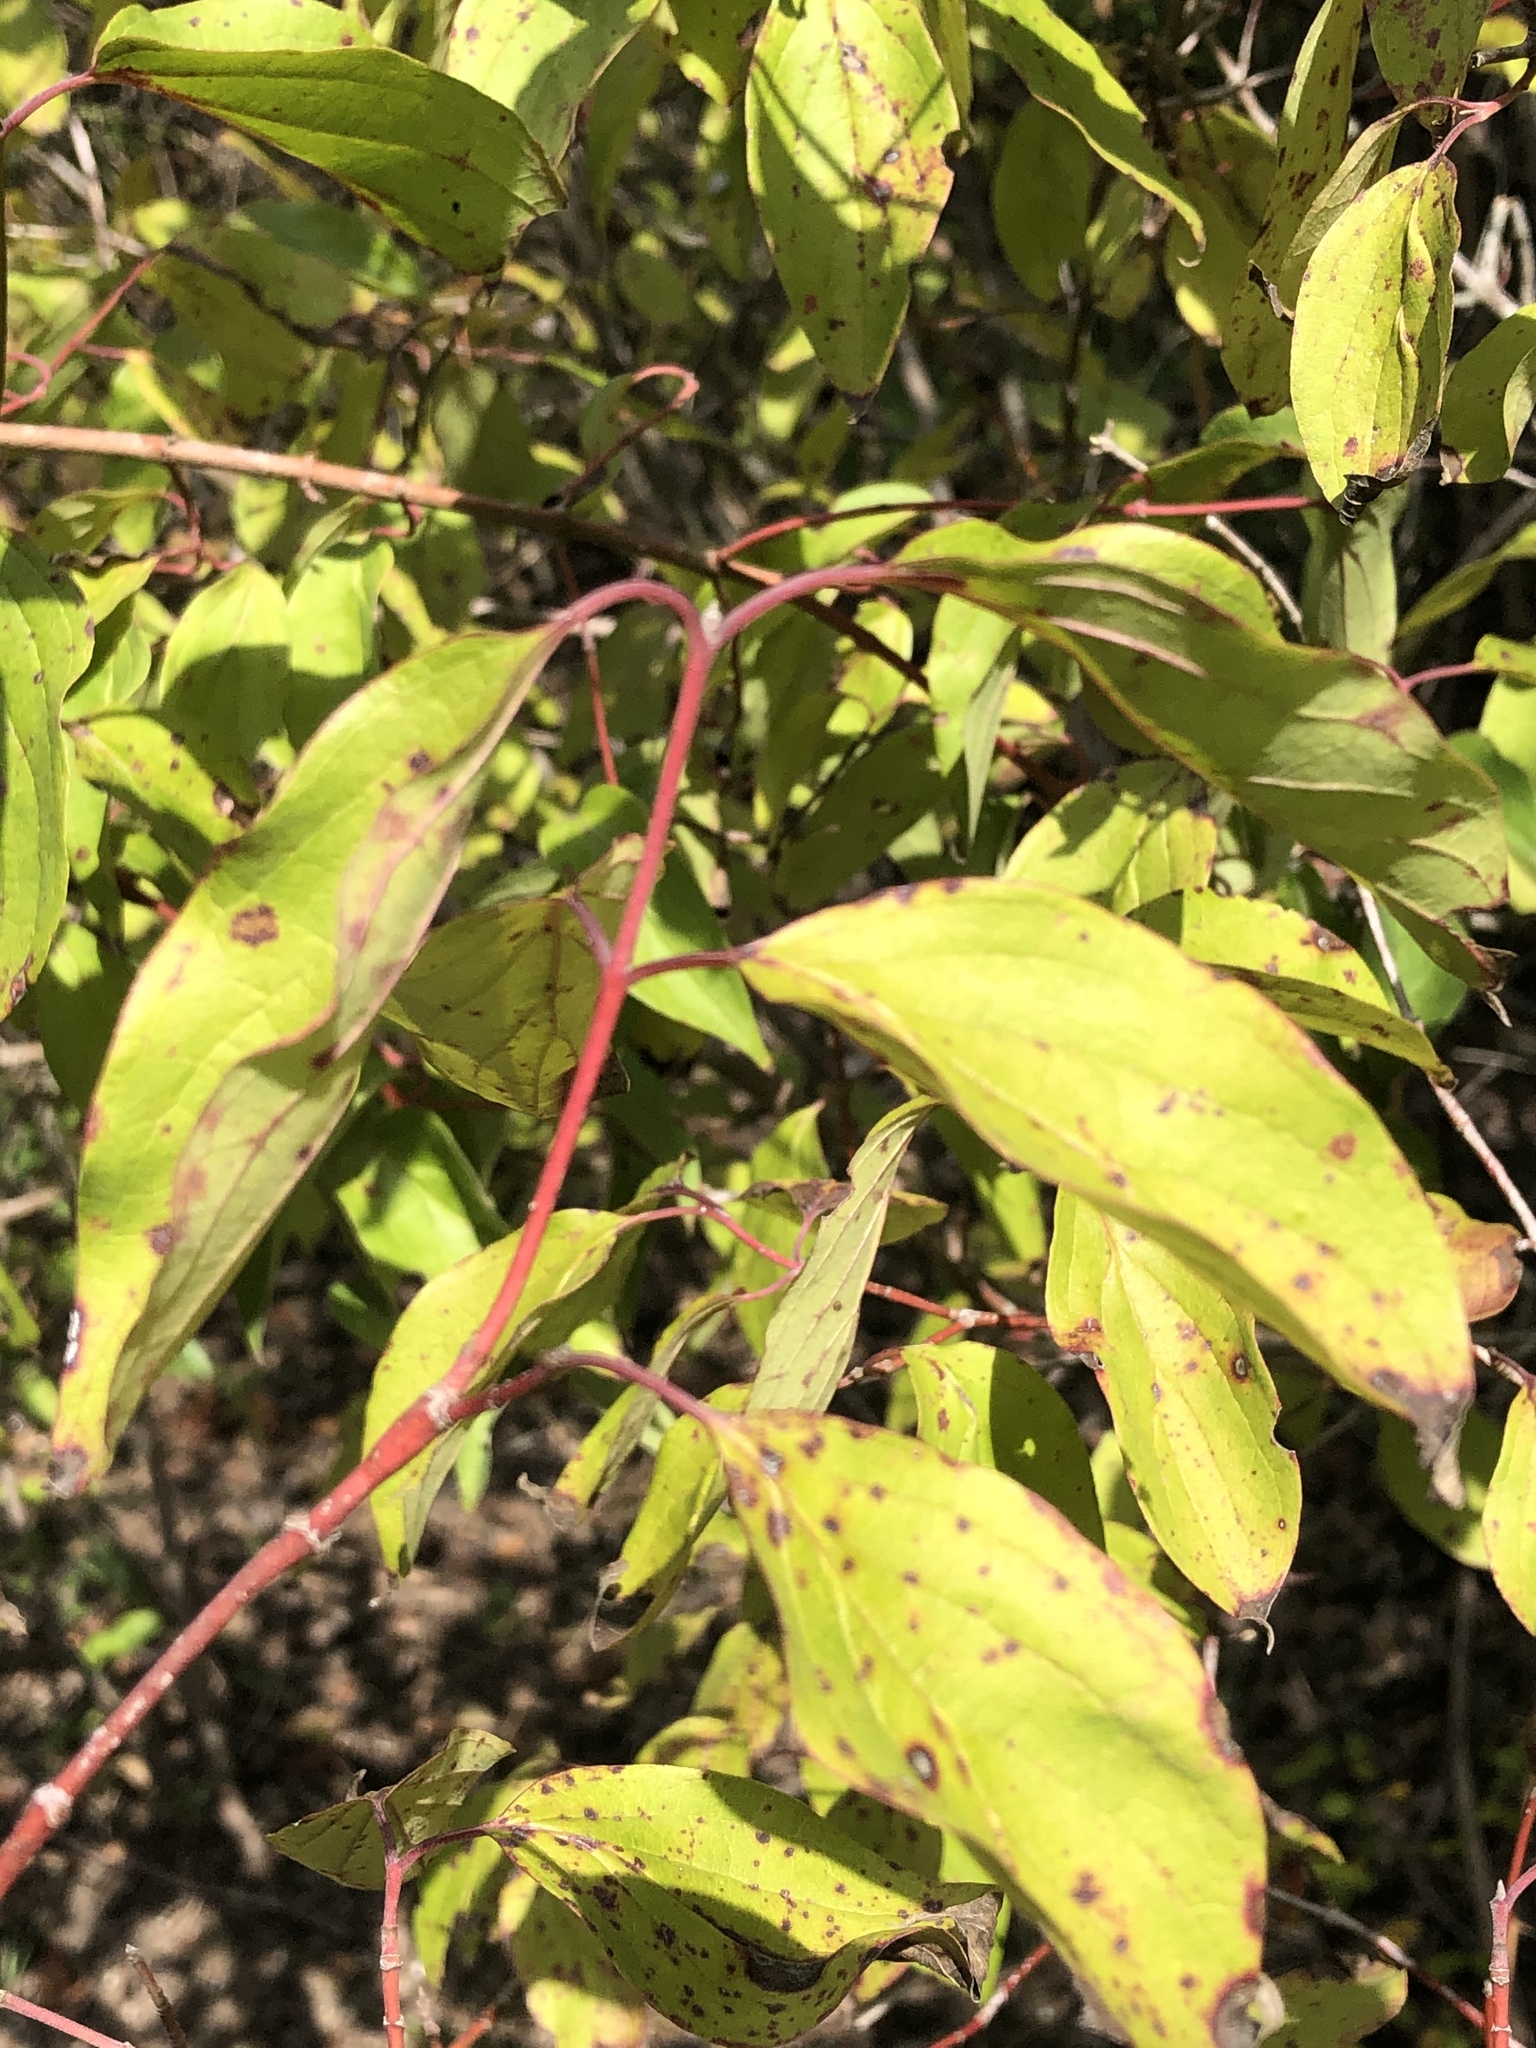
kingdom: Plantae
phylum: Tracheophyta
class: Magnoliopsida
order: Cornales
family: Cornaceae
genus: Cornus
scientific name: Cornus drummondii
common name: Rough-leaf dogwood
